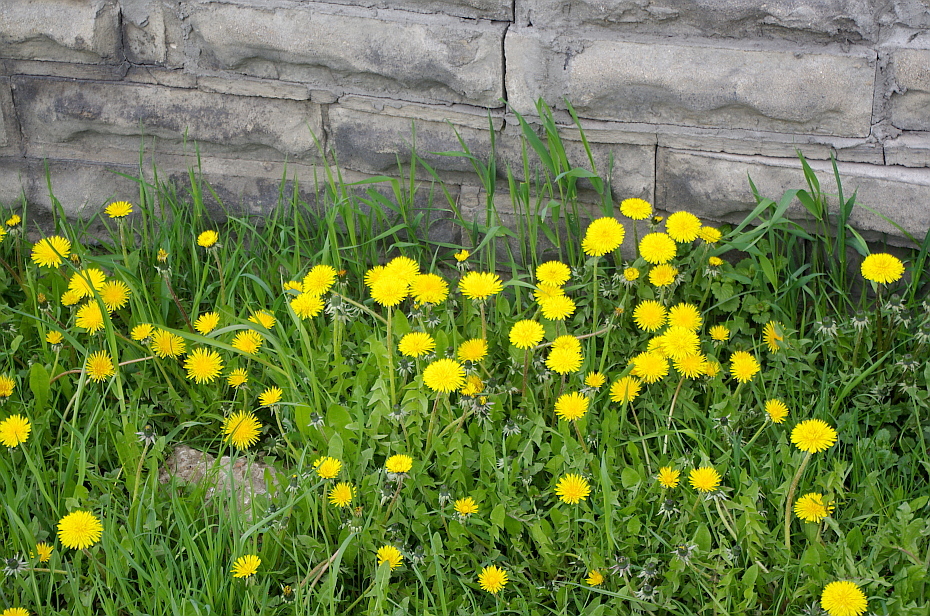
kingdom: Plantae
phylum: Tracheophyta
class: Magnoliopsida
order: Asterales
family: Asteraceae
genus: Taraxacum
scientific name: Taraxacum officinale
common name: Common dandelion
